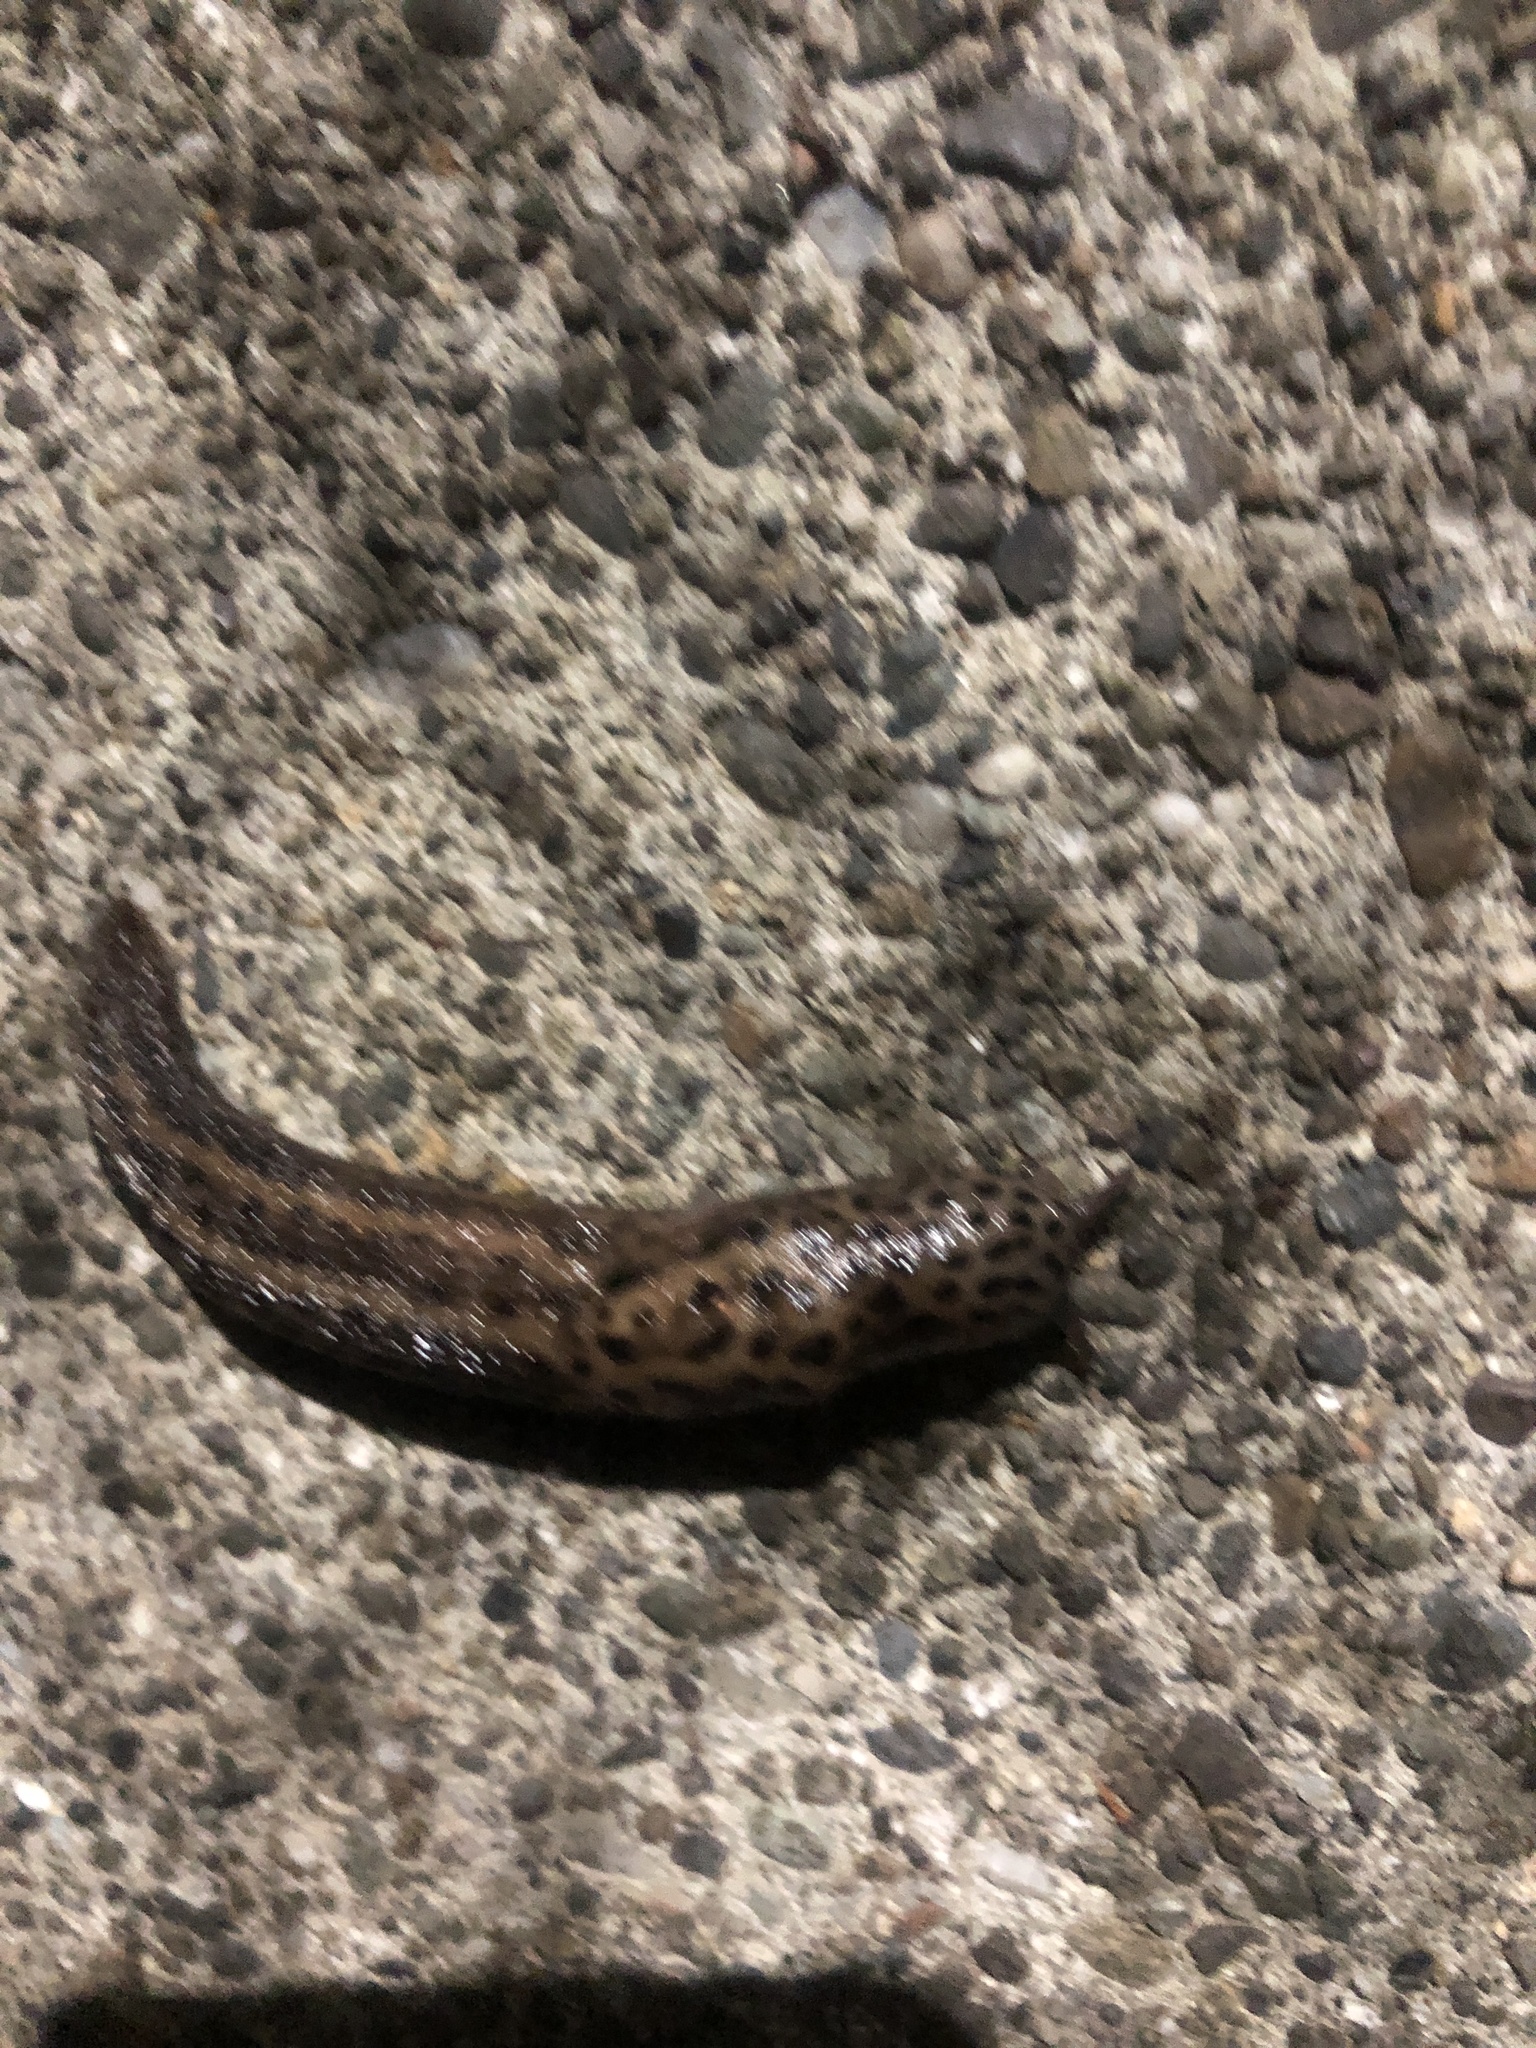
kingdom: Animalia
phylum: Mollusca
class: Gastropoda
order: Stylommatophora
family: Limacidae
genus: Limax
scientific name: Limax maximus
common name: Great grey slug
